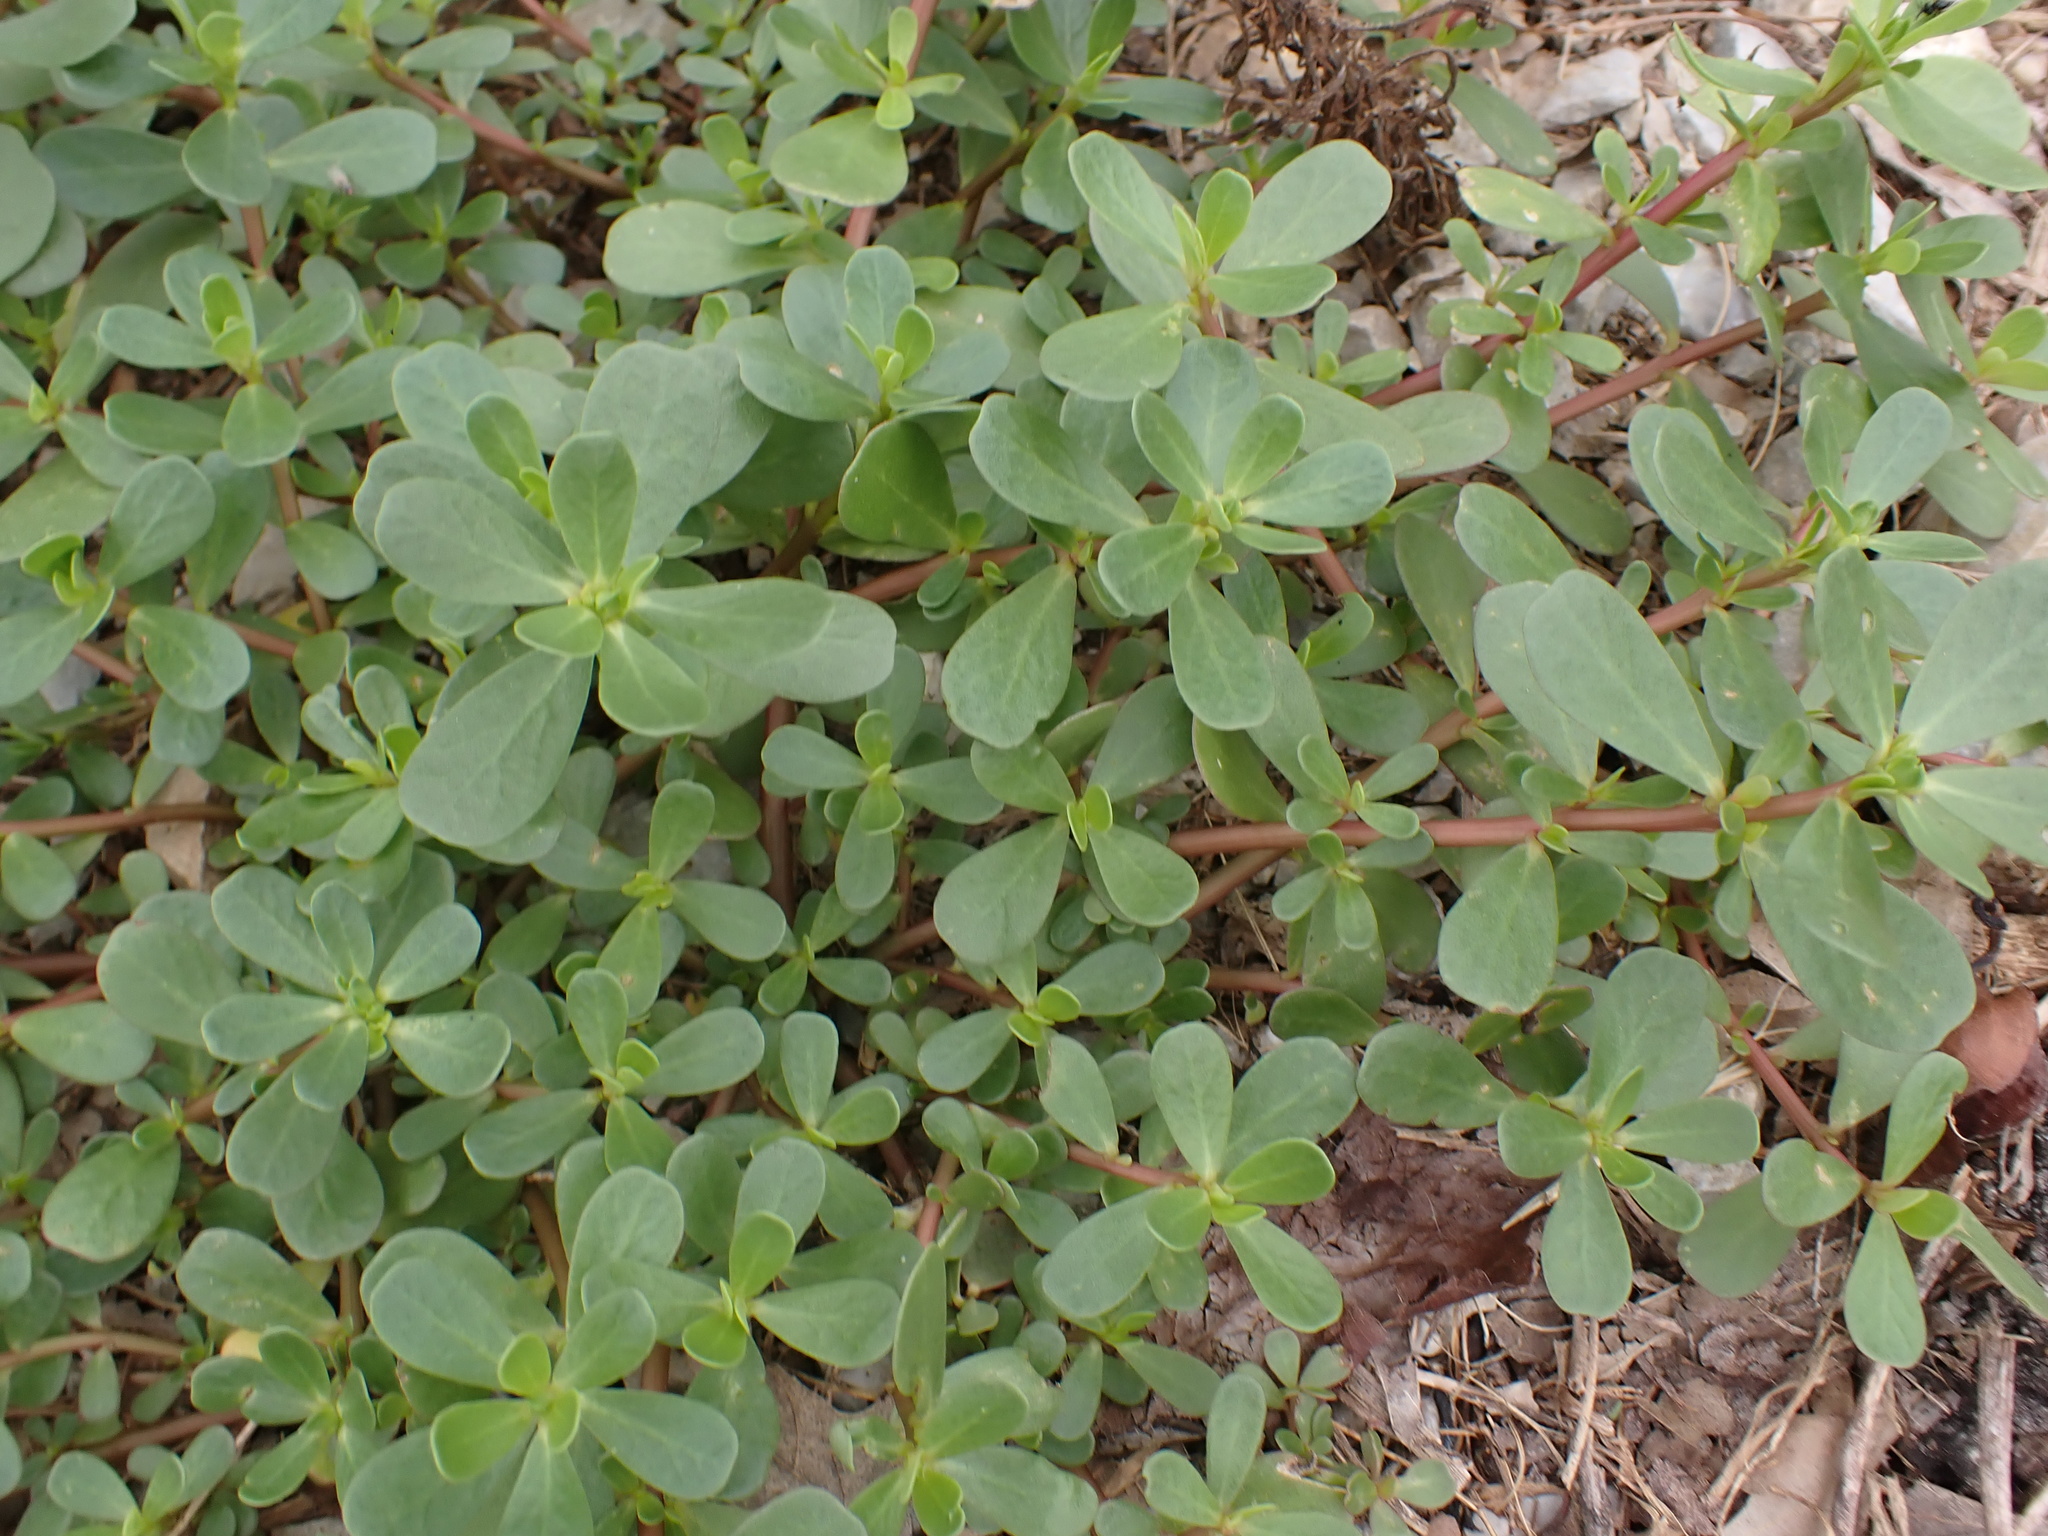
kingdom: Plantae
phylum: Tracheophyta
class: Magnoliopsida
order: Caryophyllales
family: Portulacaceae
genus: Portulaca
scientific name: Portulaca oleracea
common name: Common purslane
